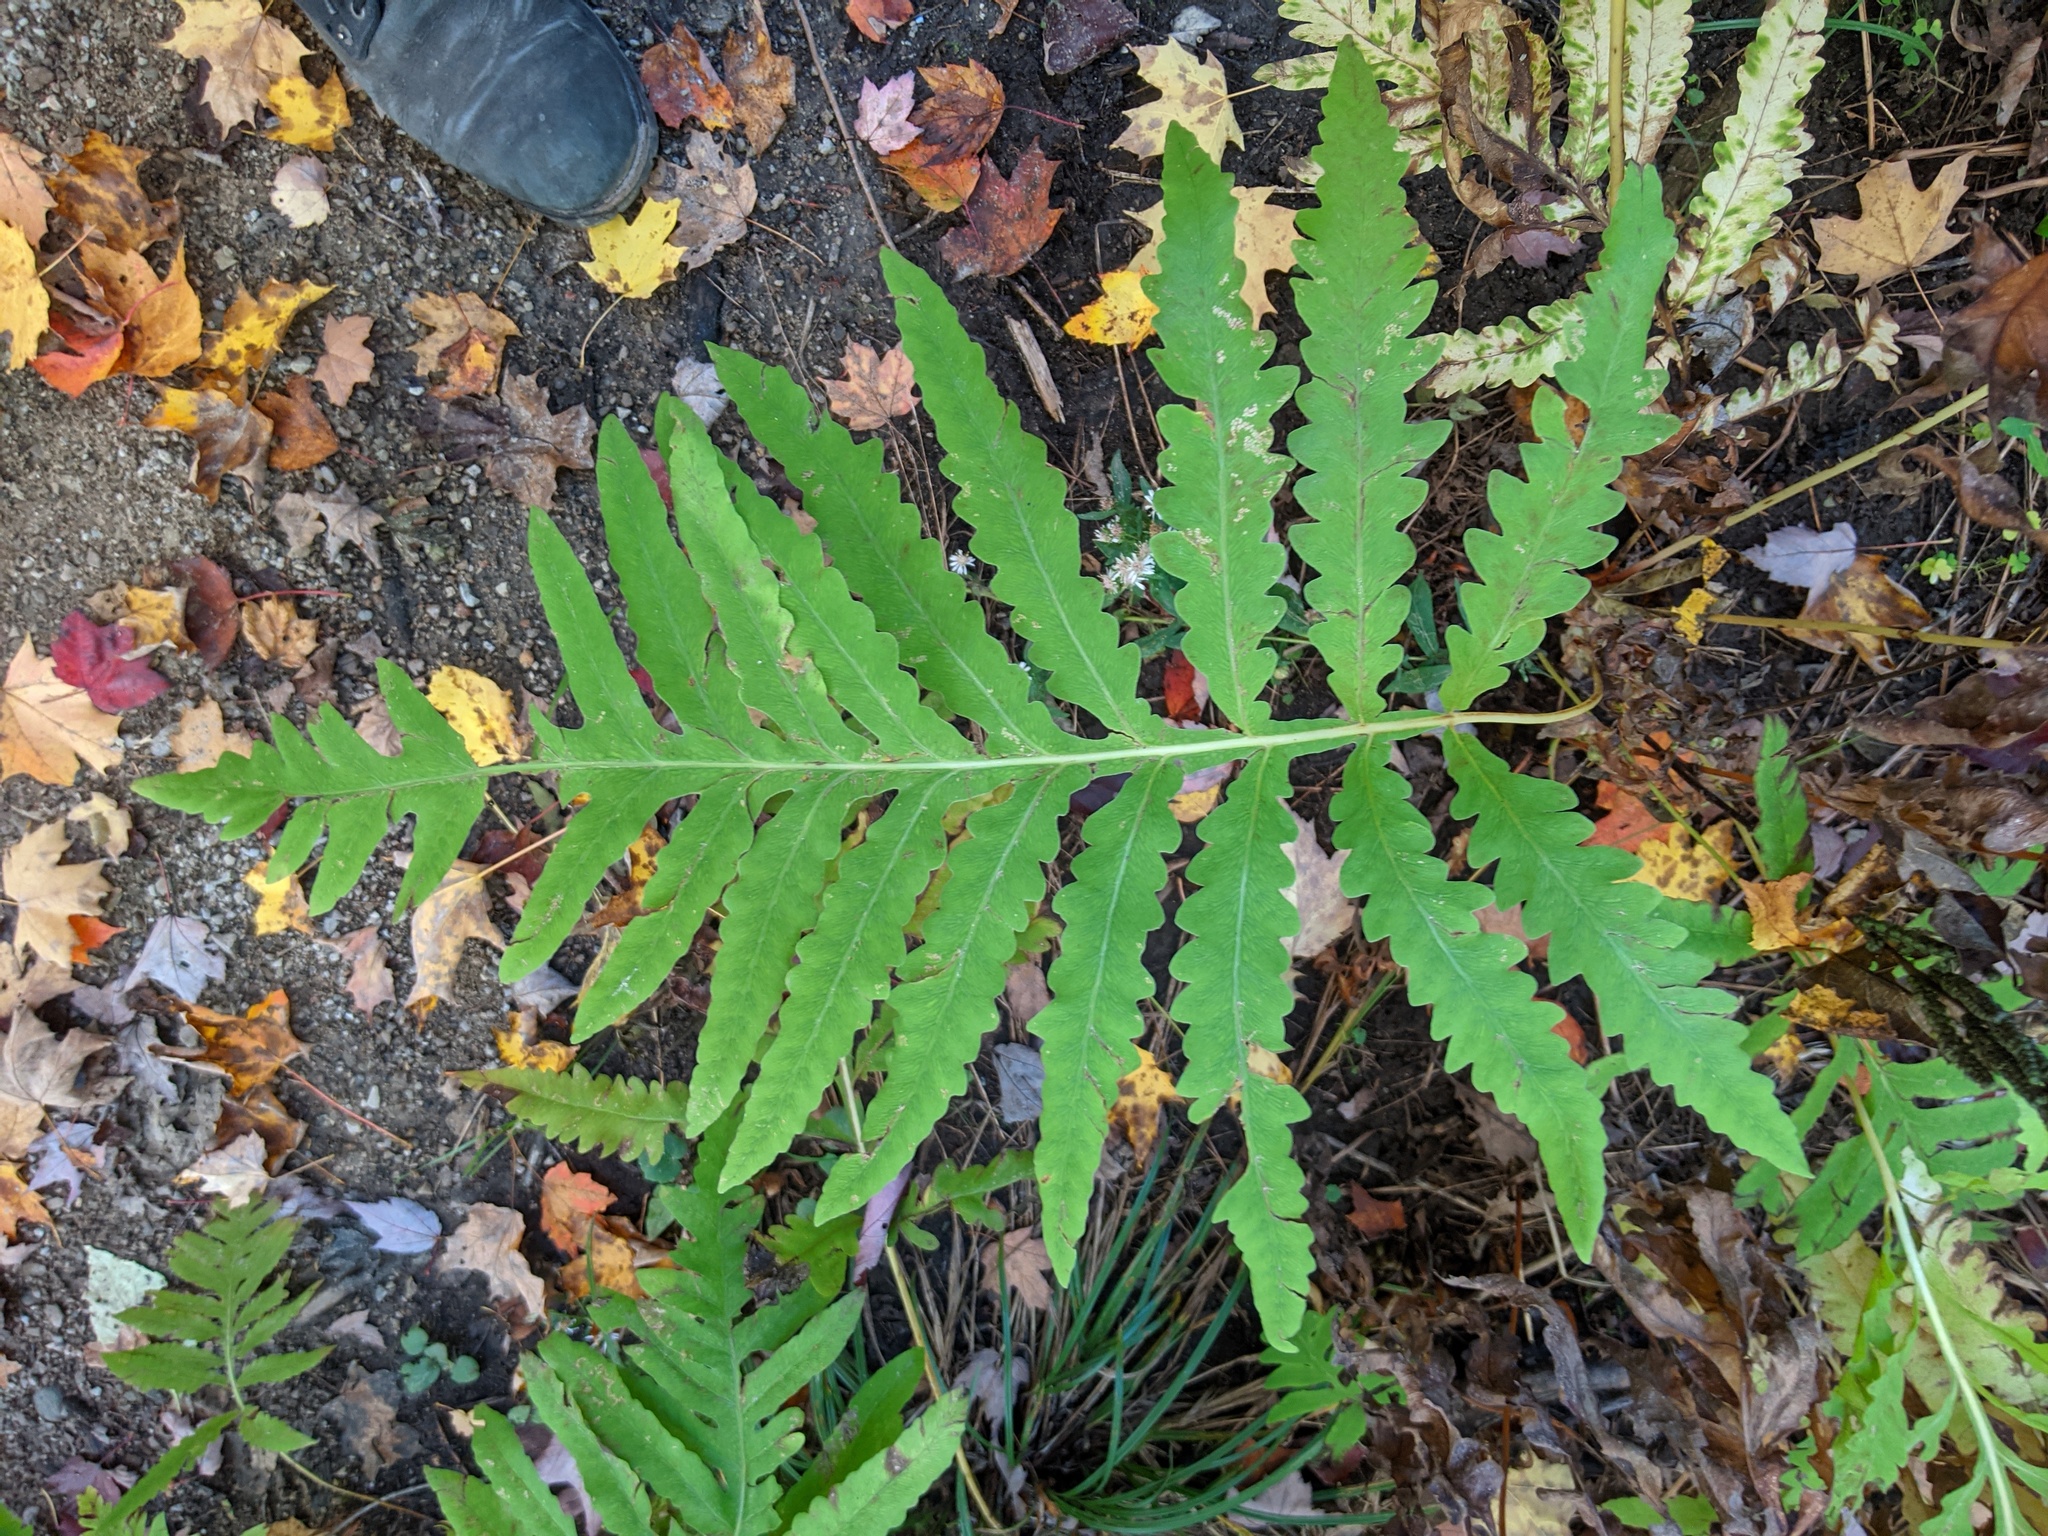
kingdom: Plantae
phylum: Tracheophyta
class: Polypodiopsida
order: Polypodiales
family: Onocleaceae
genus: Onoclea
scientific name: Onoclea sensibilis
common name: Sensitive fern
